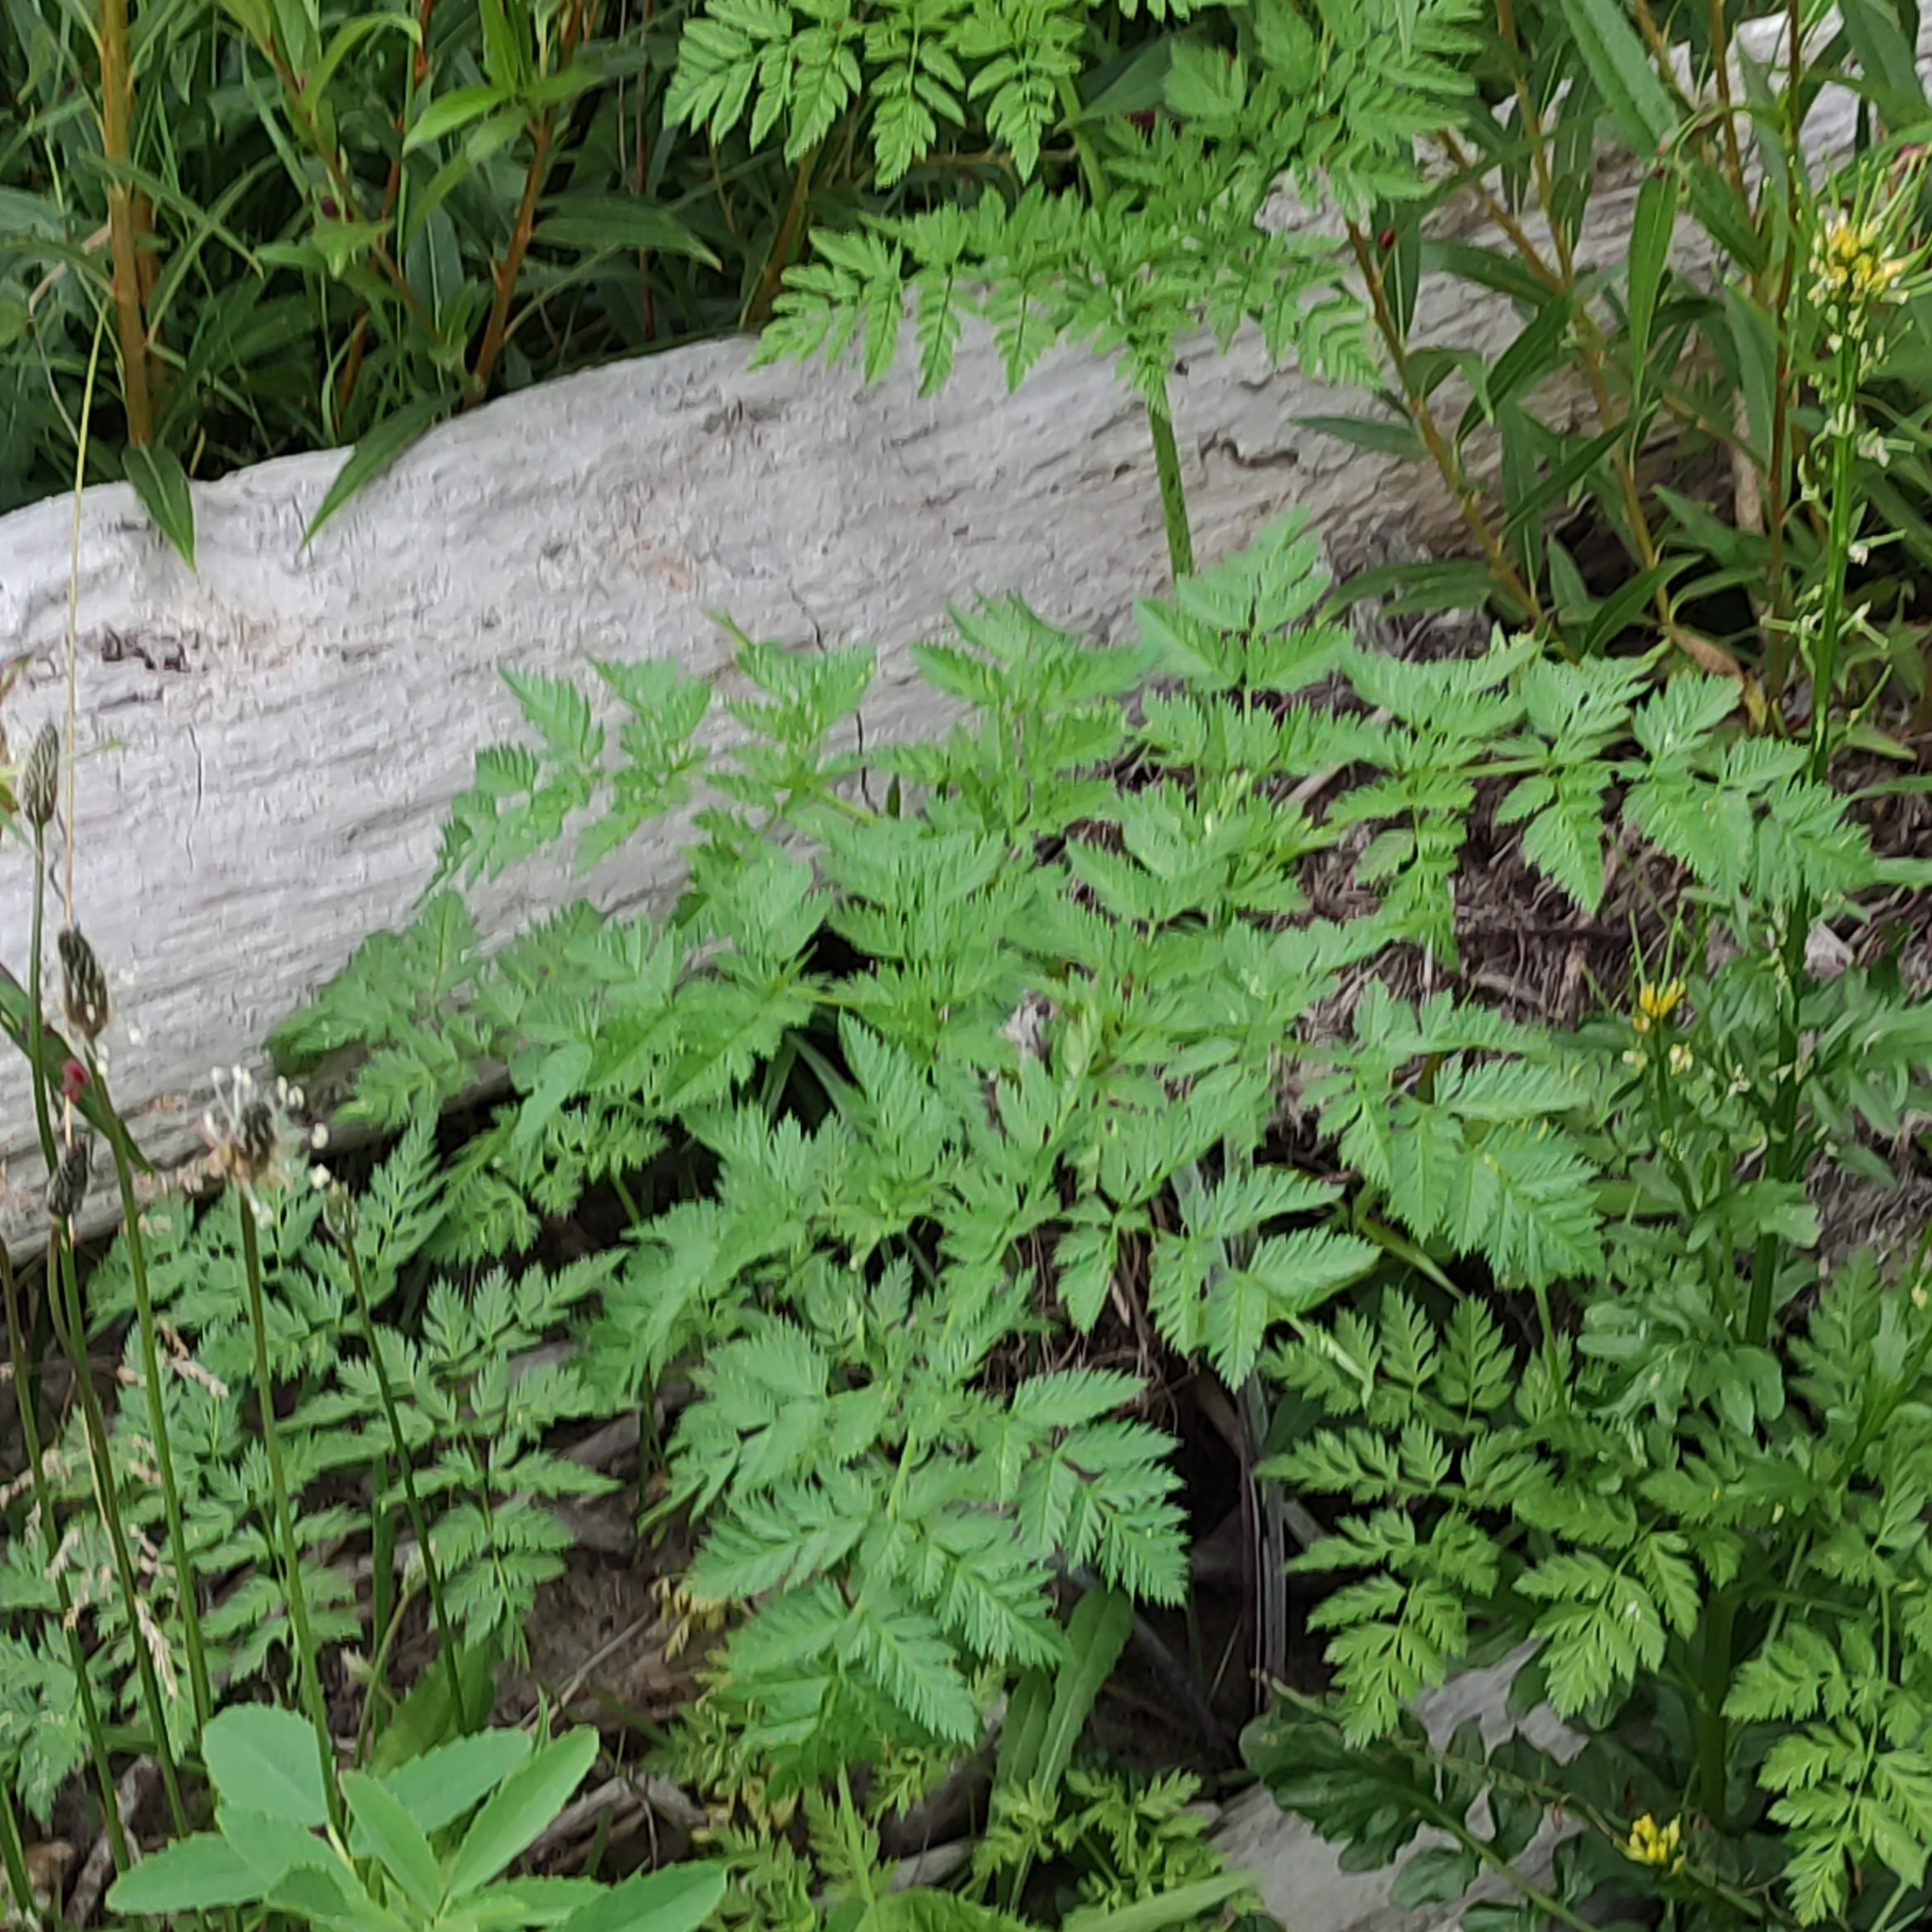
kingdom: Plantae
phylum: Tracheophyta
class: Magnoliopsida
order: Apiales
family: Apiaceae
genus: Conium
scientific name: Conium maculatum
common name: Hemlock
